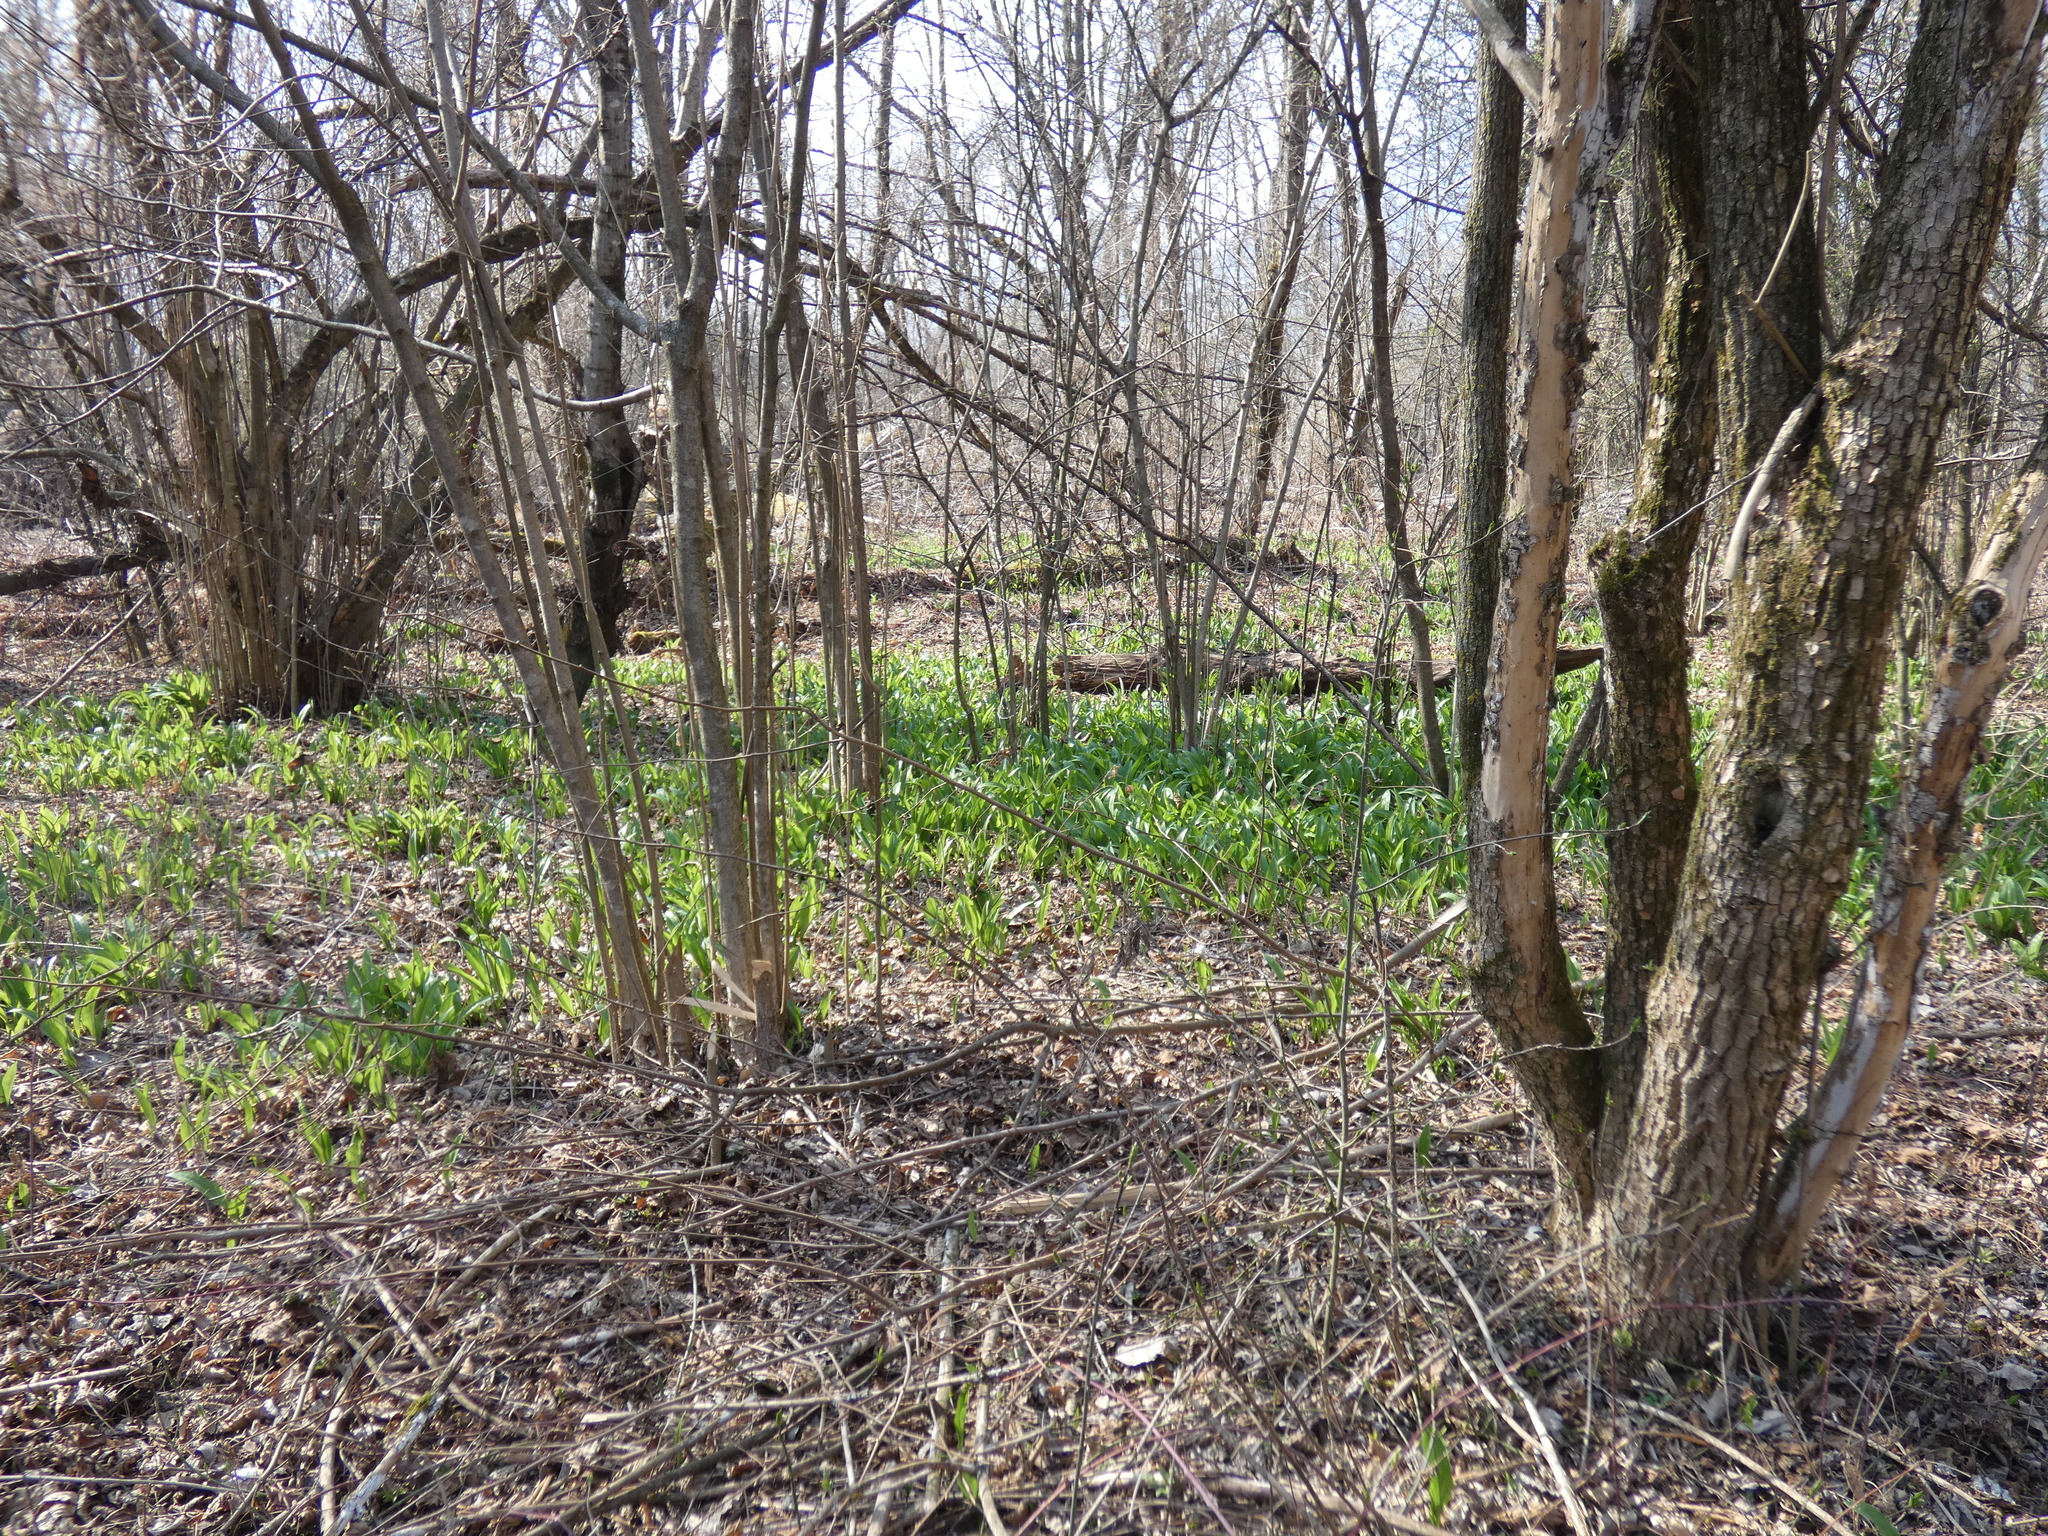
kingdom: Plantae
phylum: Tracheophyta
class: Liliopsida
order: Asparagales
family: Amaryllidaceae
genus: Allium
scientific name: Allium ursinum
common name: Ramsons
